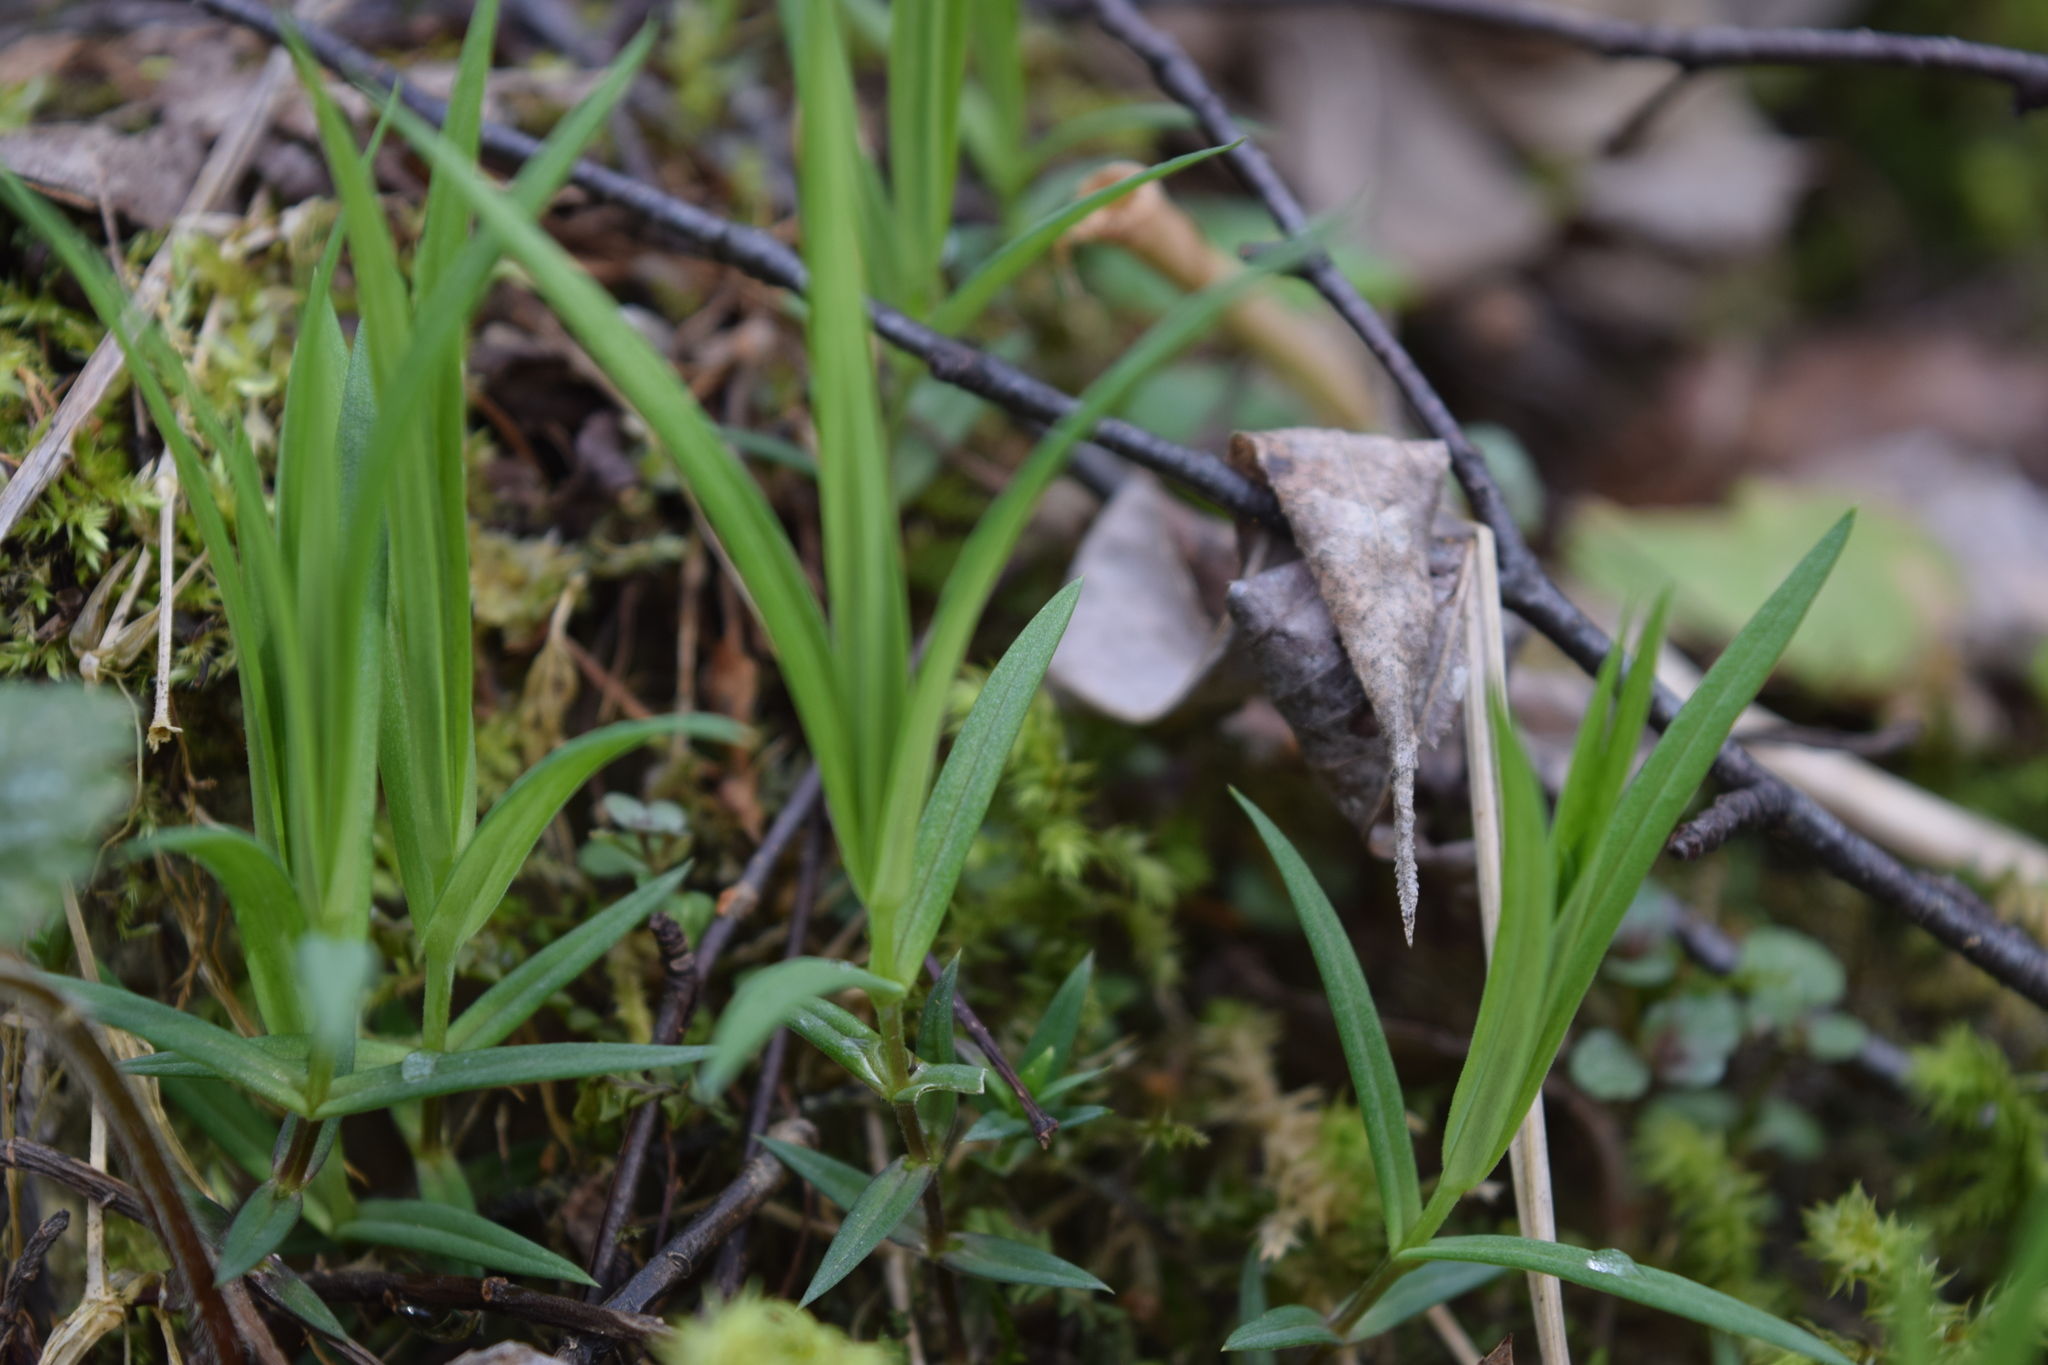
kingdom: Plantae
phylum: Tracheophyta
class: Magnoliopsida
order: Caryophyllales
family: Caryophyllaceae
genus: Rabelera
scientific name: Rabelera holostea
